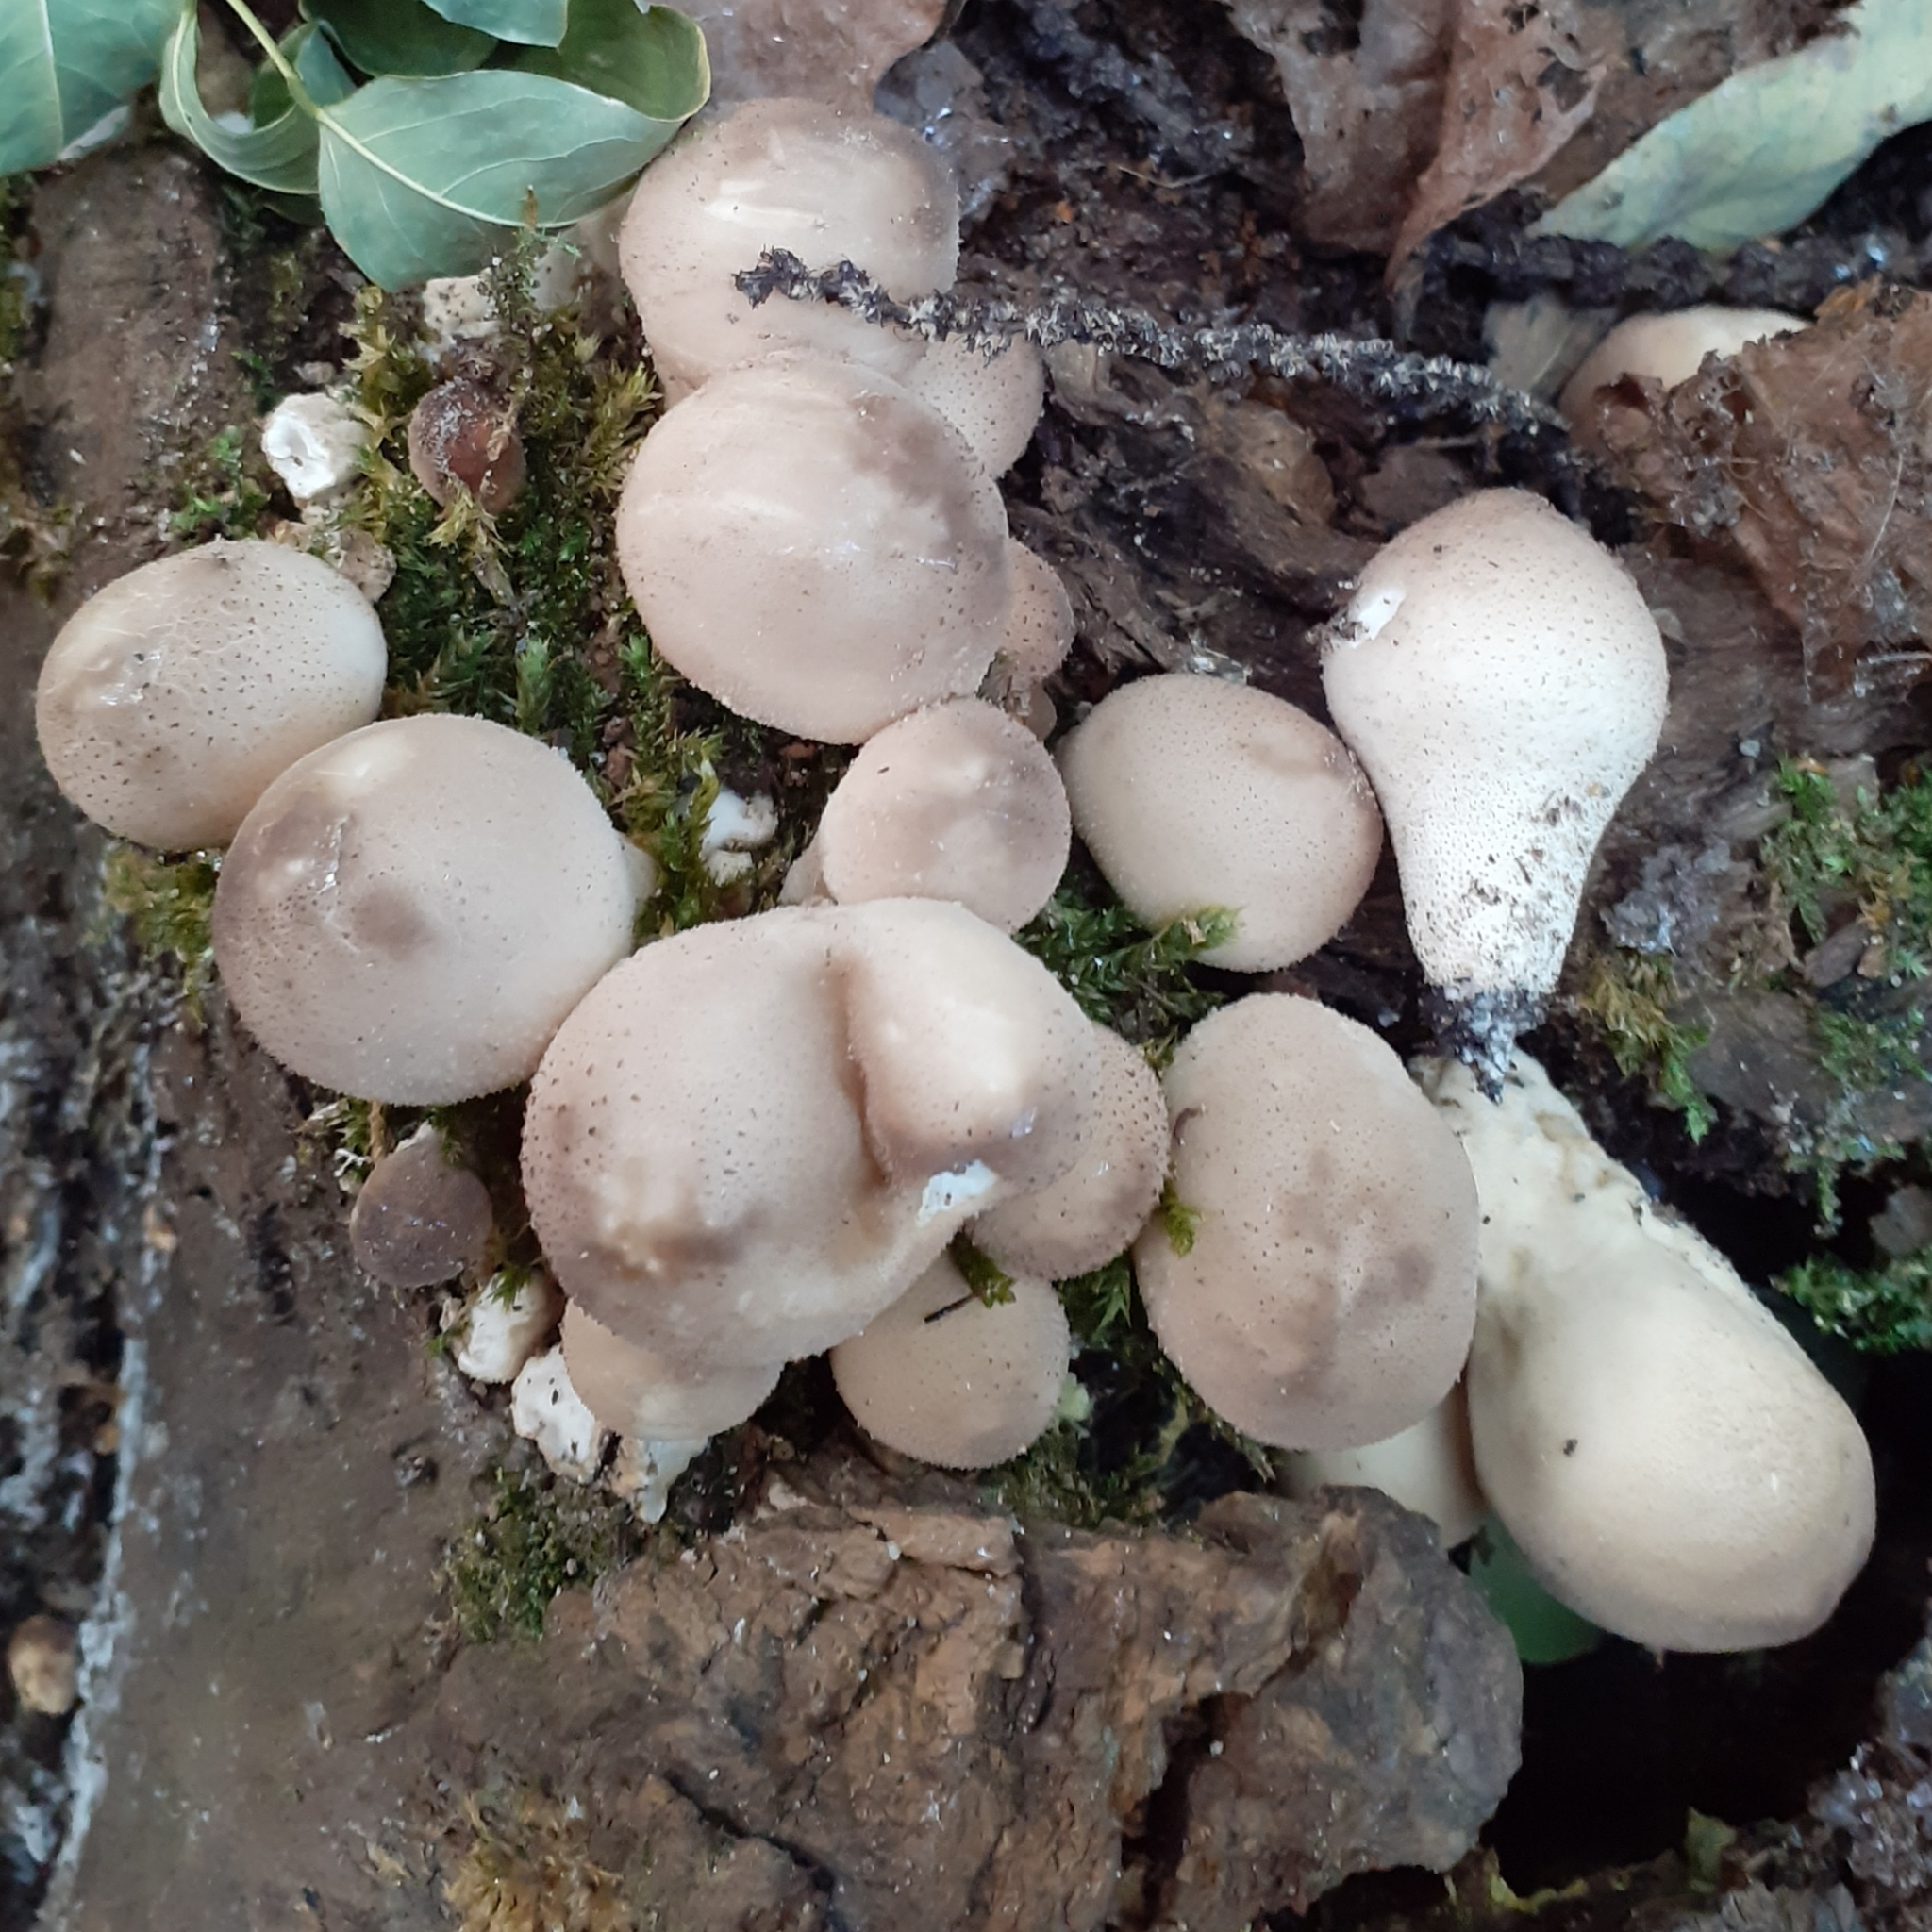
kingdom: Fungi
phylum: Basidiomycota
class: Agaricomycetes
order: Agaricales
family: Lycoperdaceae
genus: Apioperdon
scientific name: Apioperdon pyriforme
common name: Pear-shaped puffball
